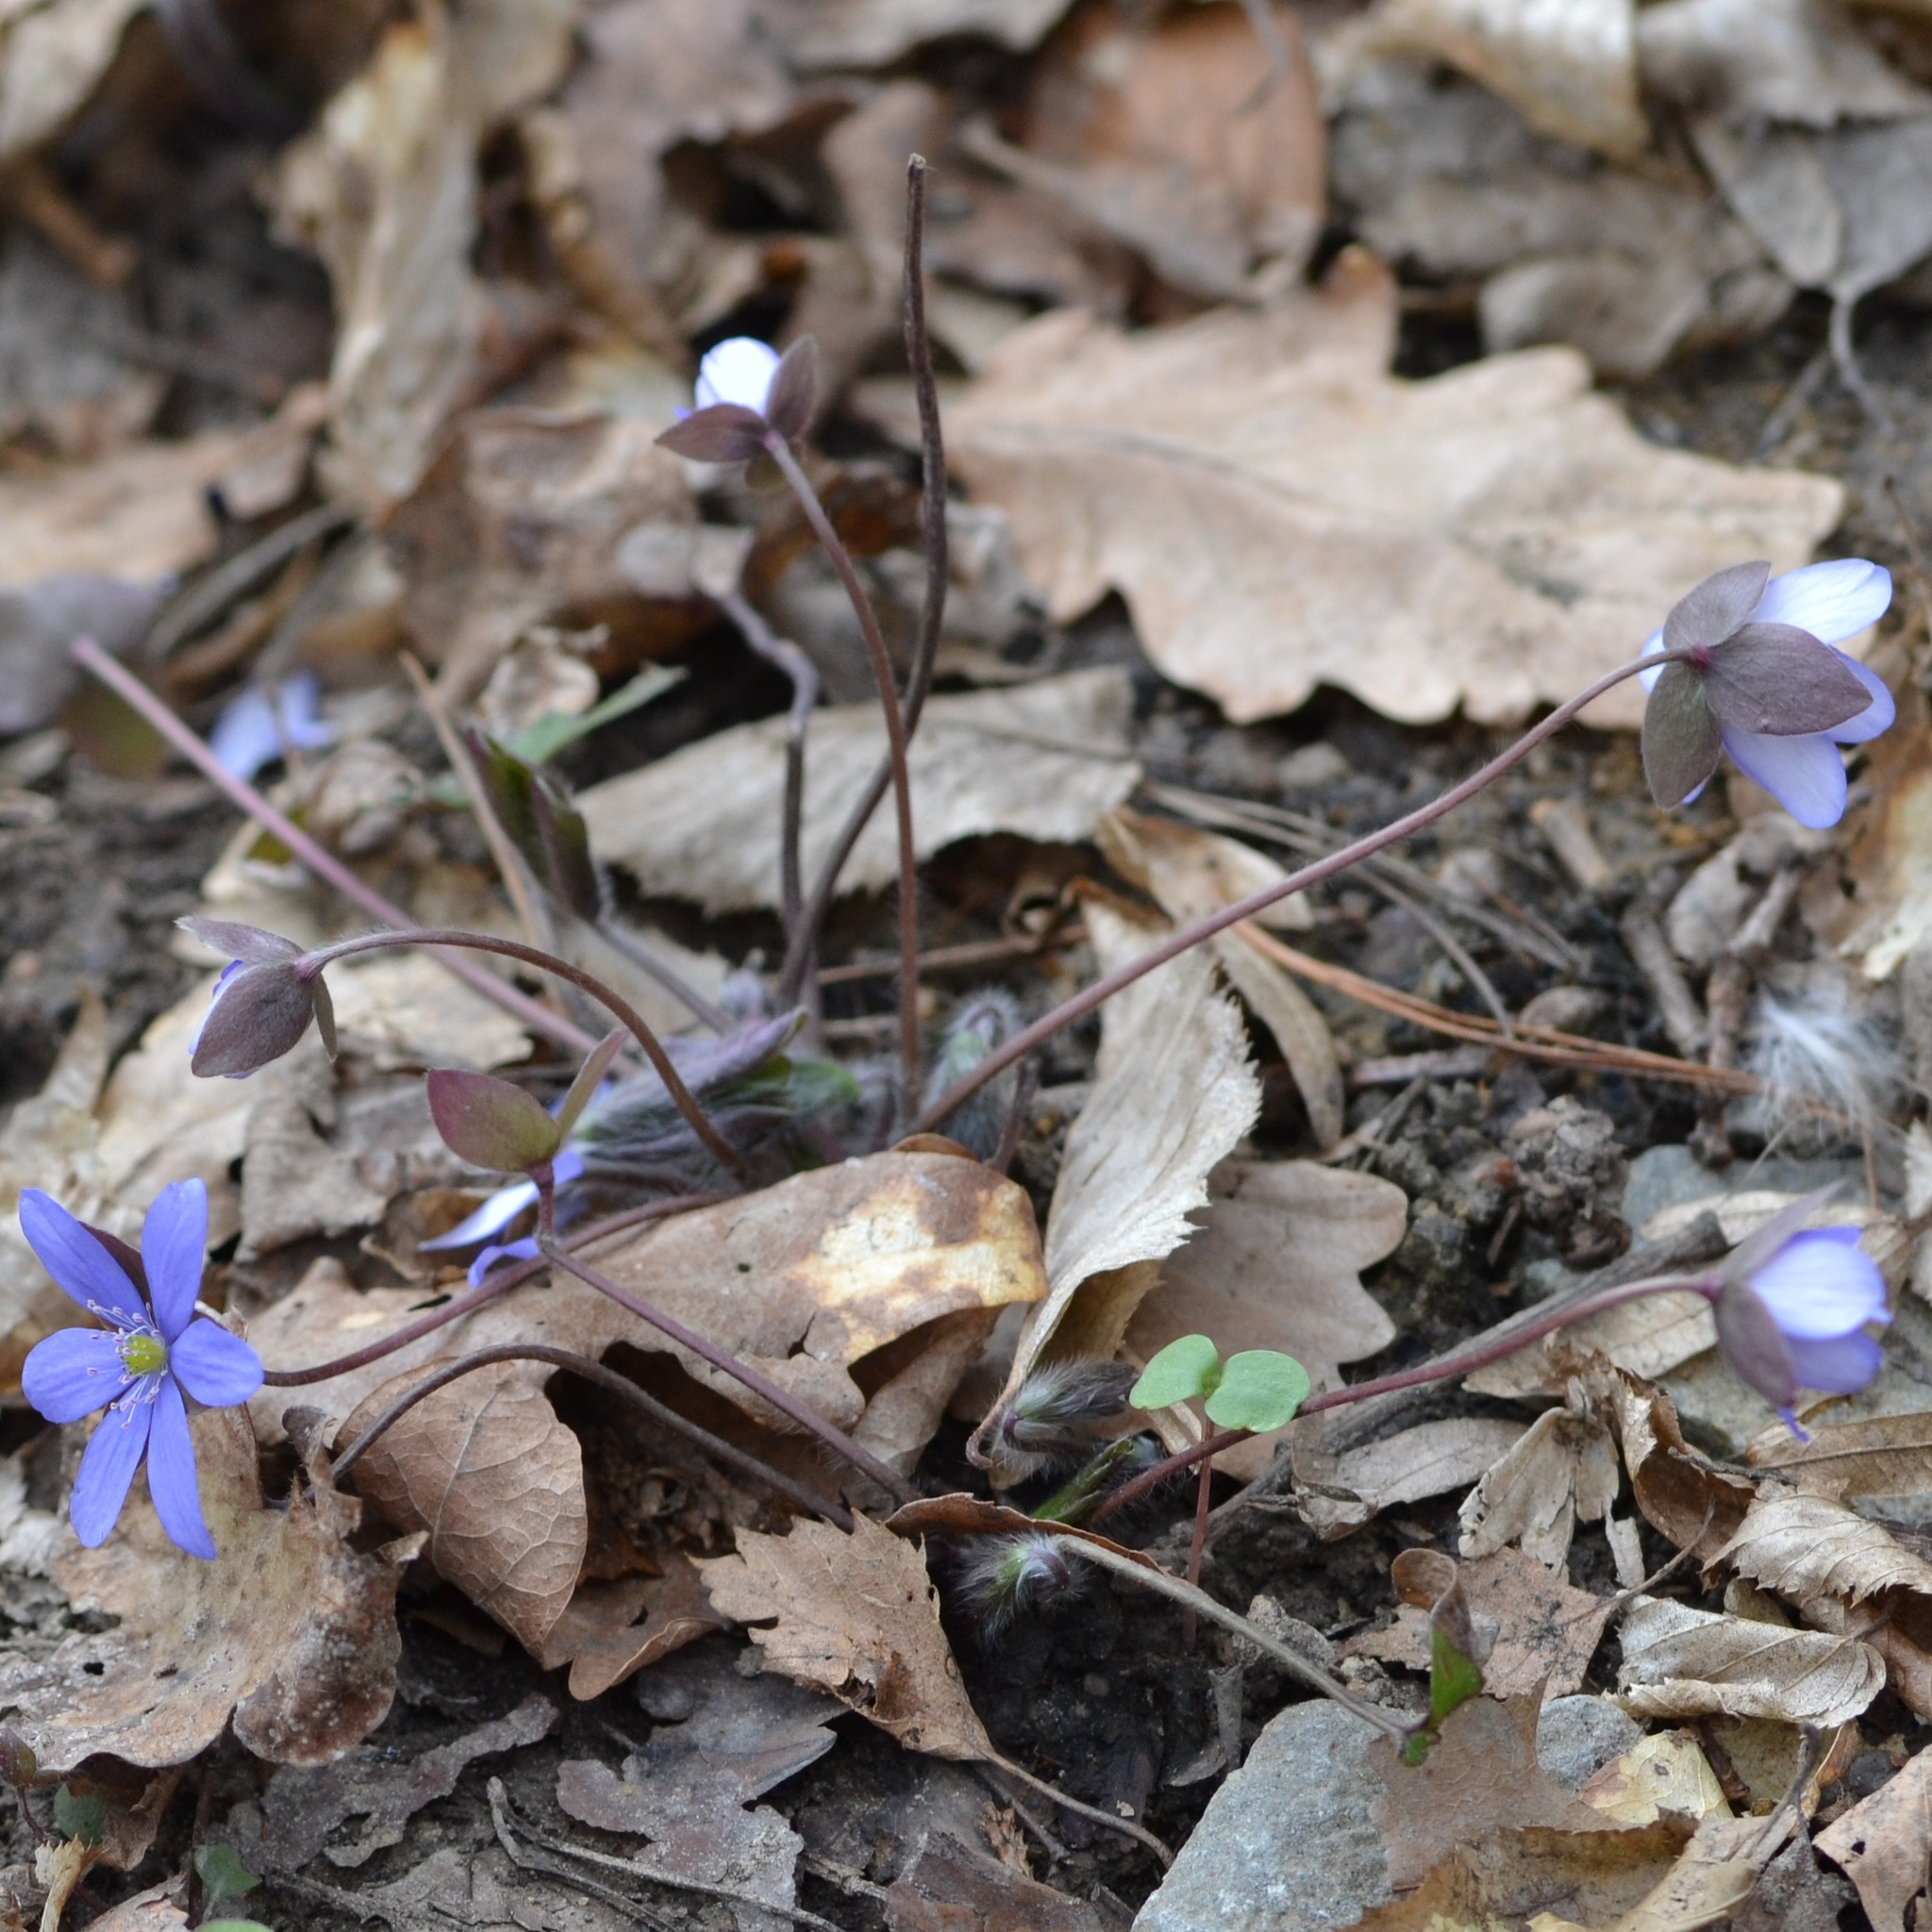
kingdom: Plantae
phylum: Tracheophyta
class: Magnoliopsida
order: Ranunculales
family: Ranunculaceae
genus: Hepatica
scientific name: Hepatica nobilis
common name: Liverleaf
